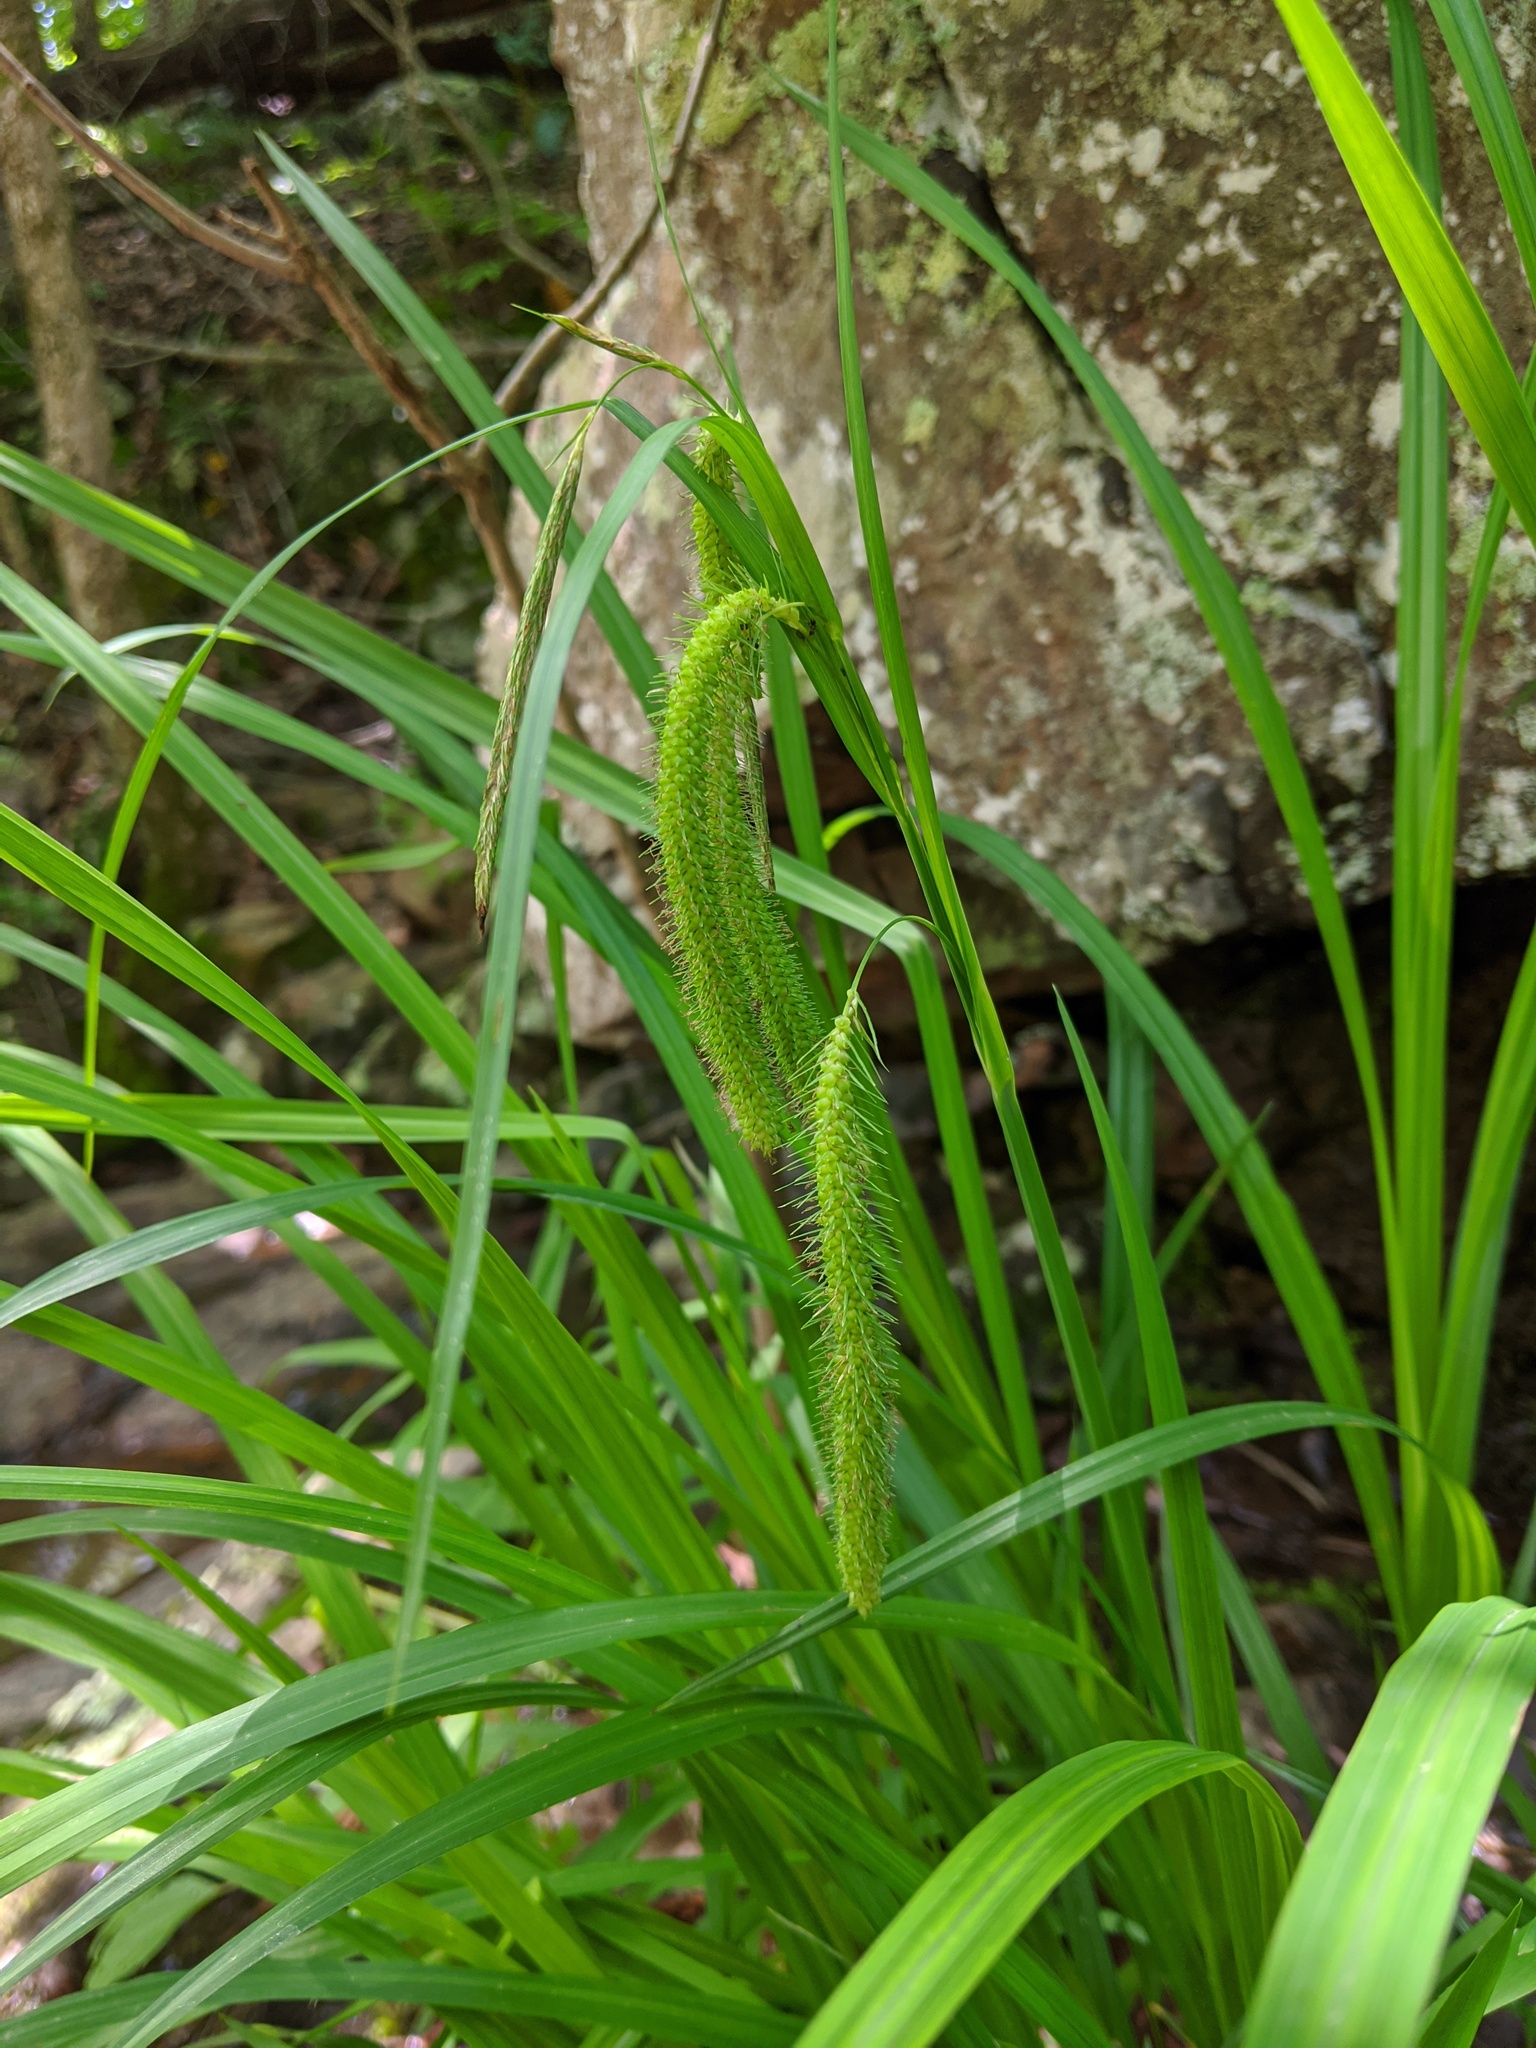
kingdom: Plantae
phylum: Tracheophyta
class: Liliopsida
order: Poales
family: Cyperaceae
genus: Carex
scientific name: Carex crinita
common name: Fringed sedge
